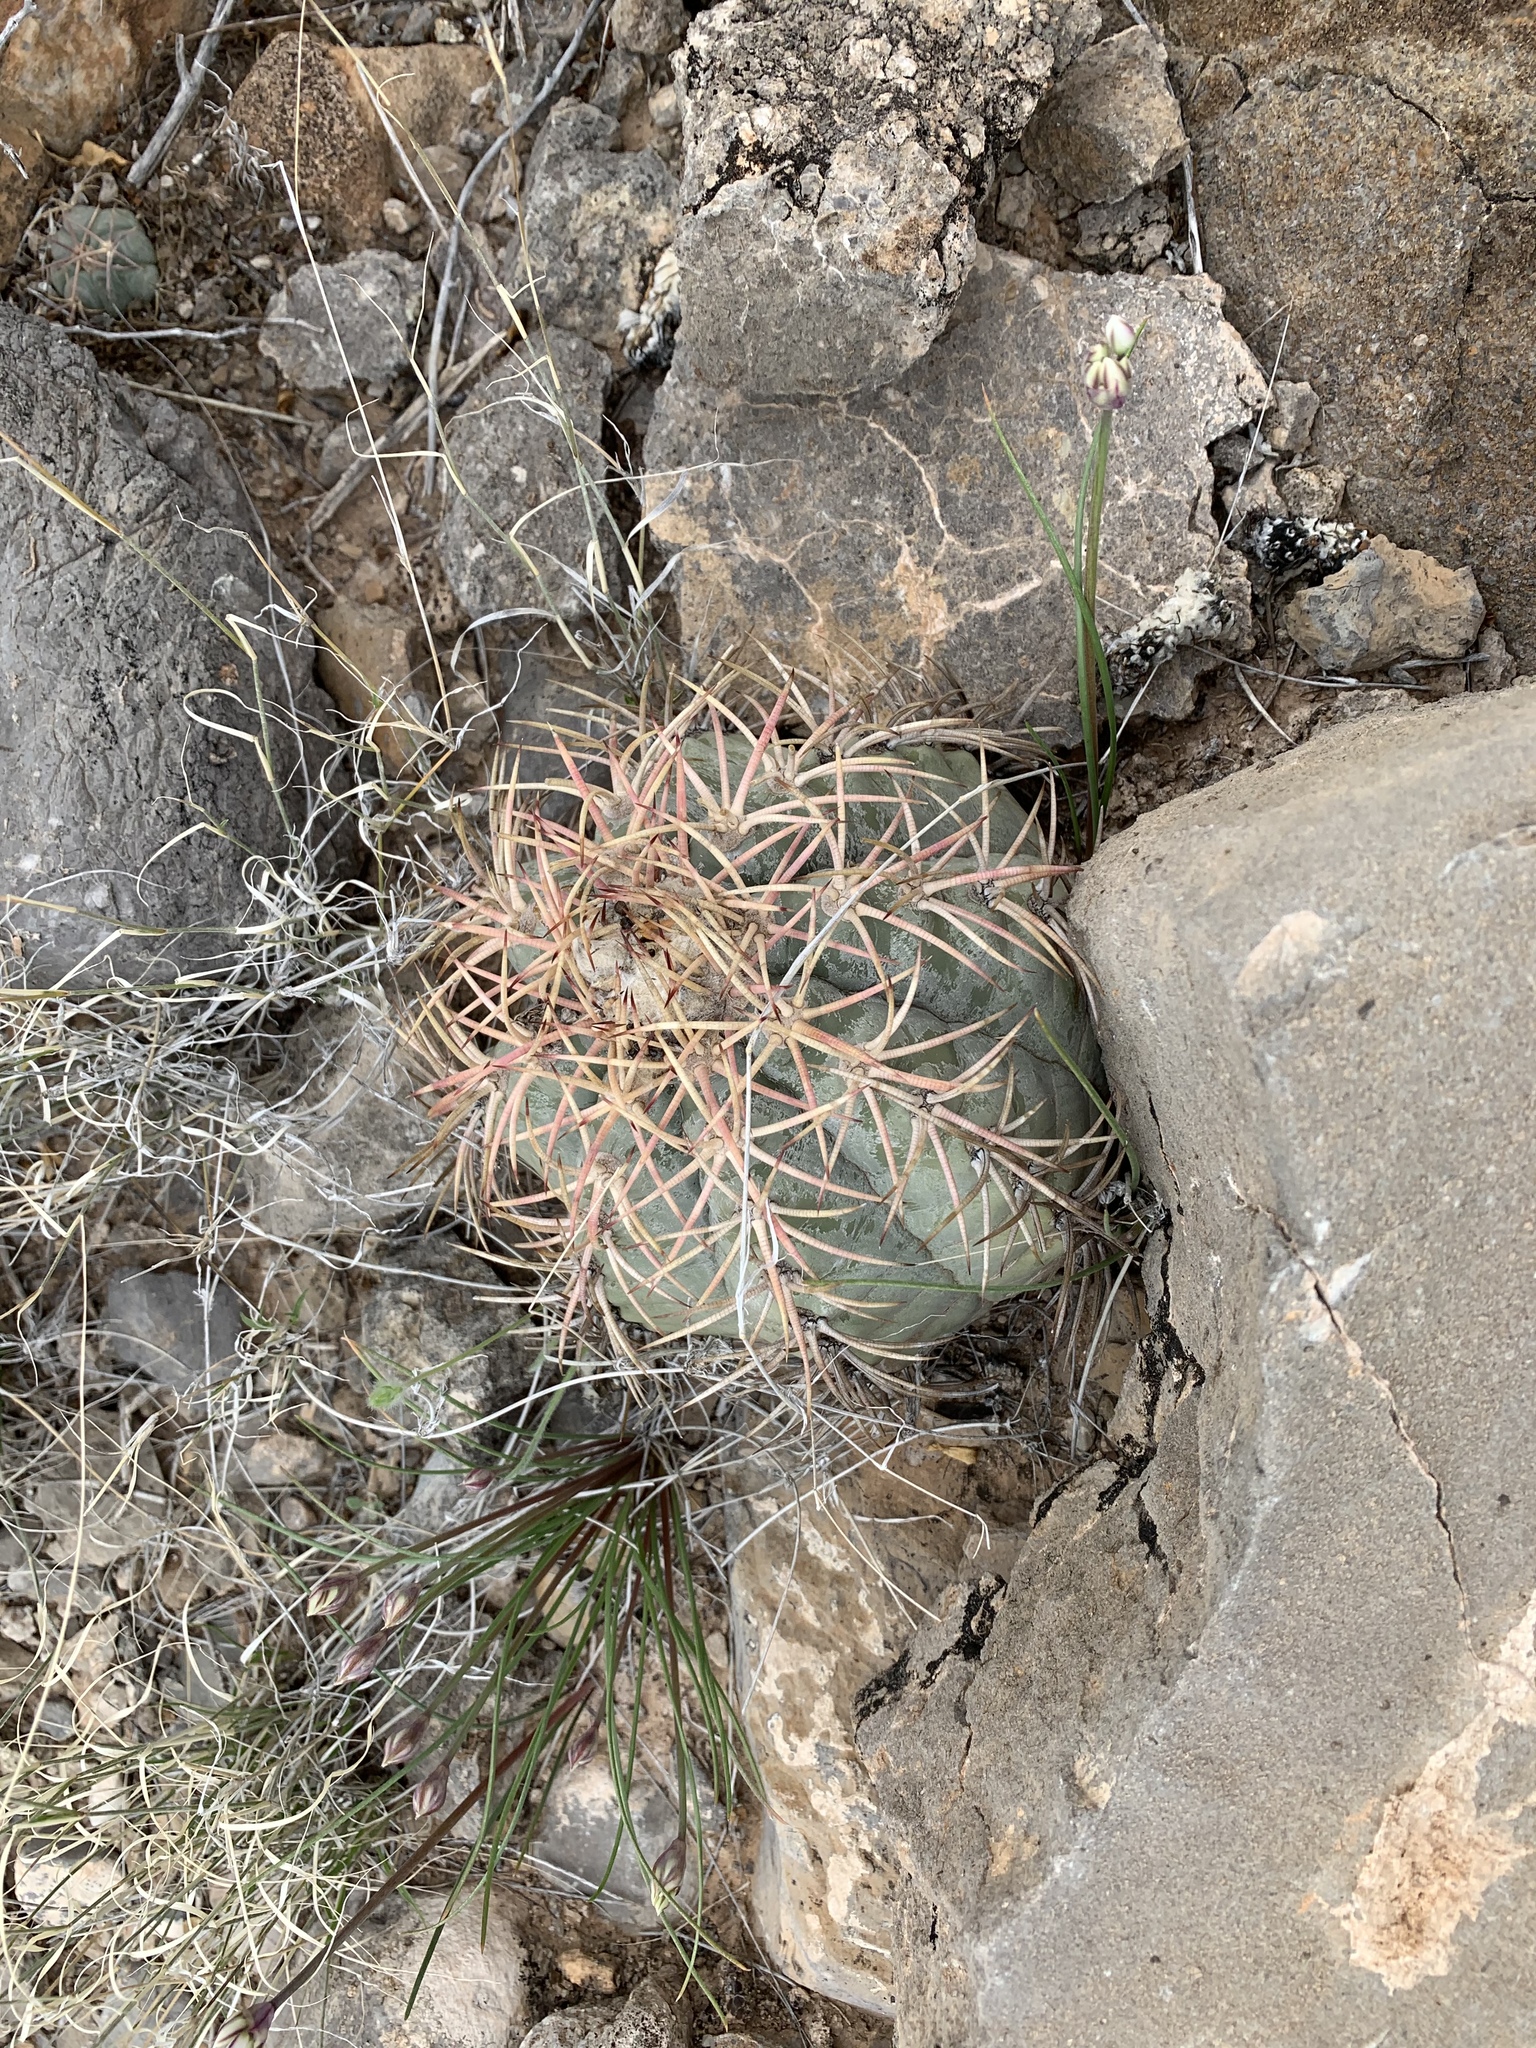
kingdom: Plantae
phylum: Tracheophyta
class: Magnoliopsida
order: Caryophyllales
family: Cactaceae
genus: Echinocactus
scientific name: Echinocactus horizonthalonius
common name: Devilshead
